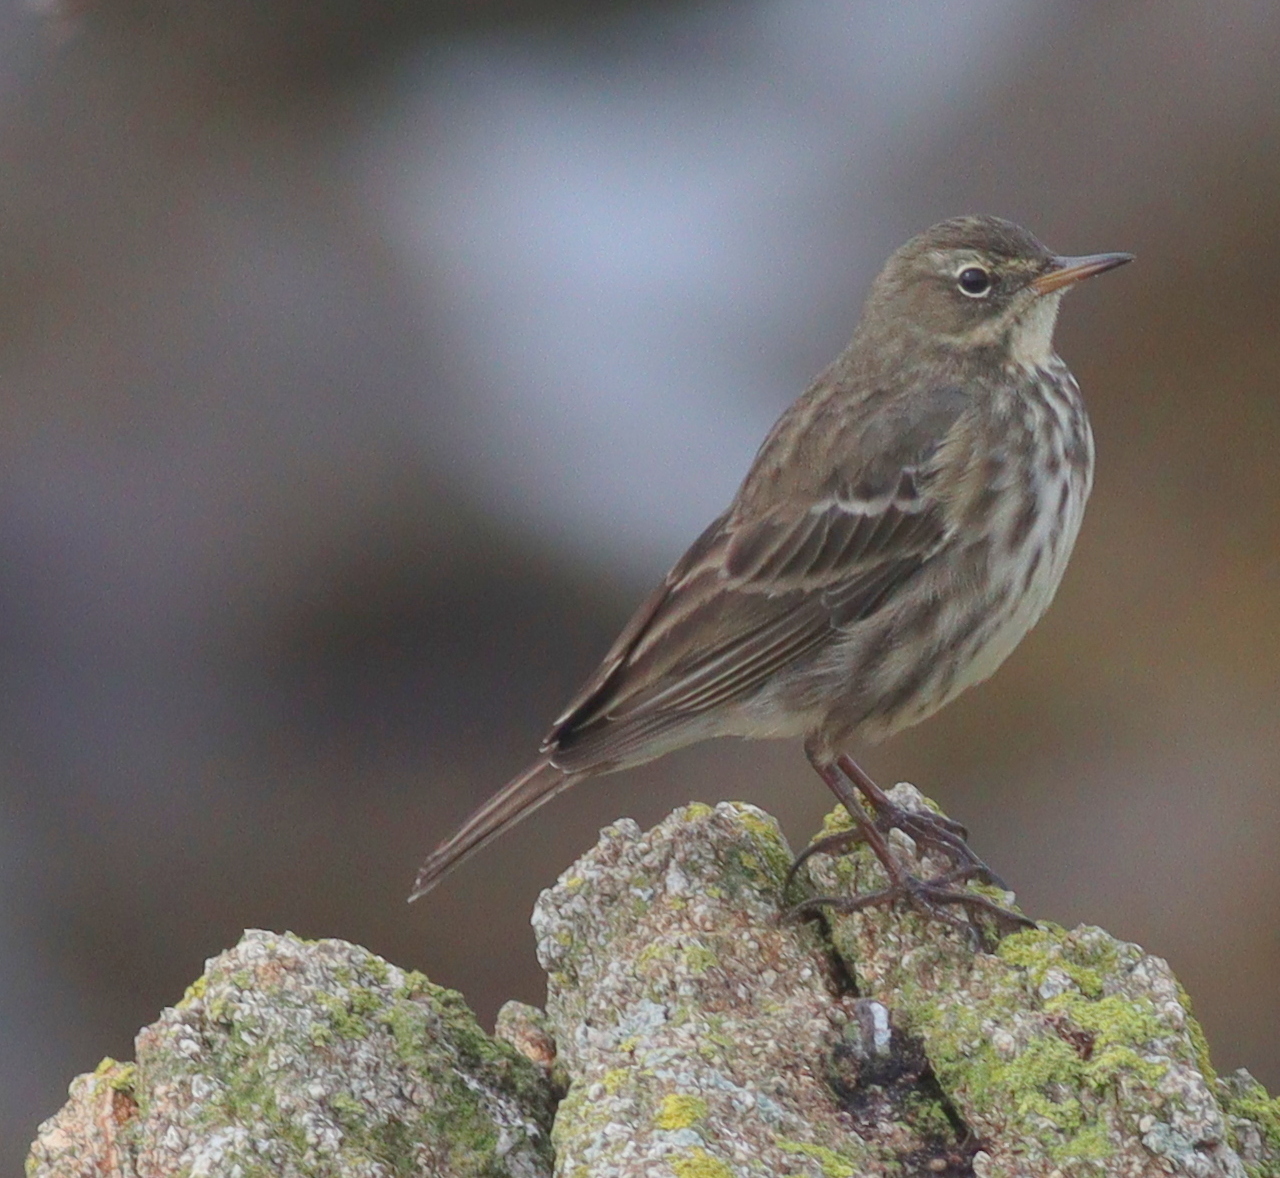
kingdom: Animalia
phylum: Chordata
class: Aves
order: Passeriformes
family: Motacillidae
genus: Anthus
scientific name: Anthus petrosus
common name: Eurasian rock pipit
